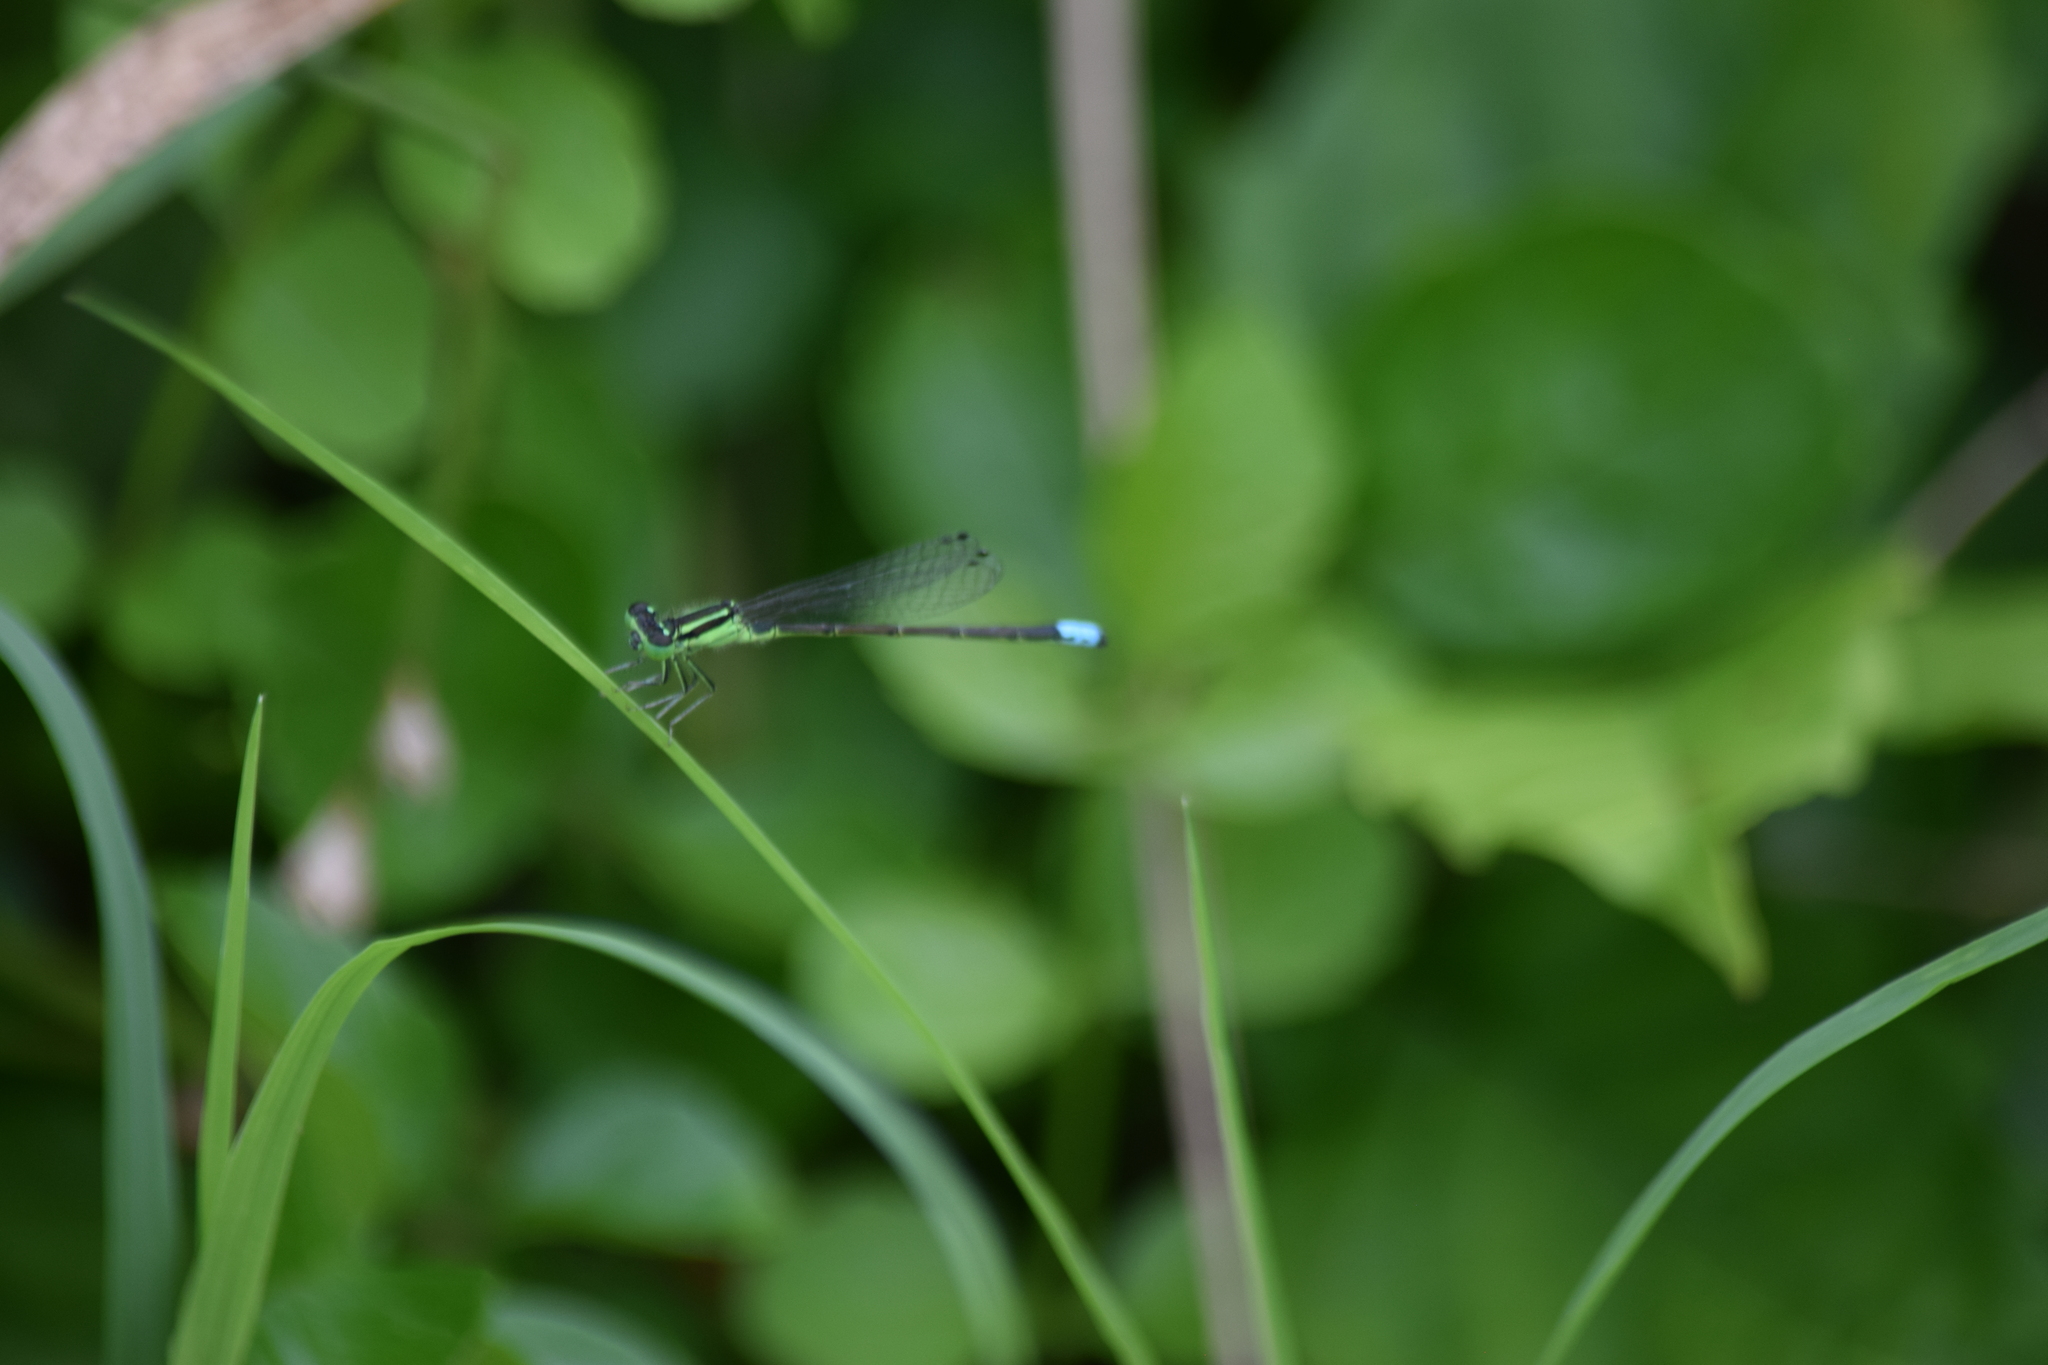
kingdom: Animalia
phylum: Arthropoda
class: Insecta
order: Odonata
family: Coenagrionidae
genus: Ischnura
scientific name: Ischnura verticalis
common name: Eastern forktail
